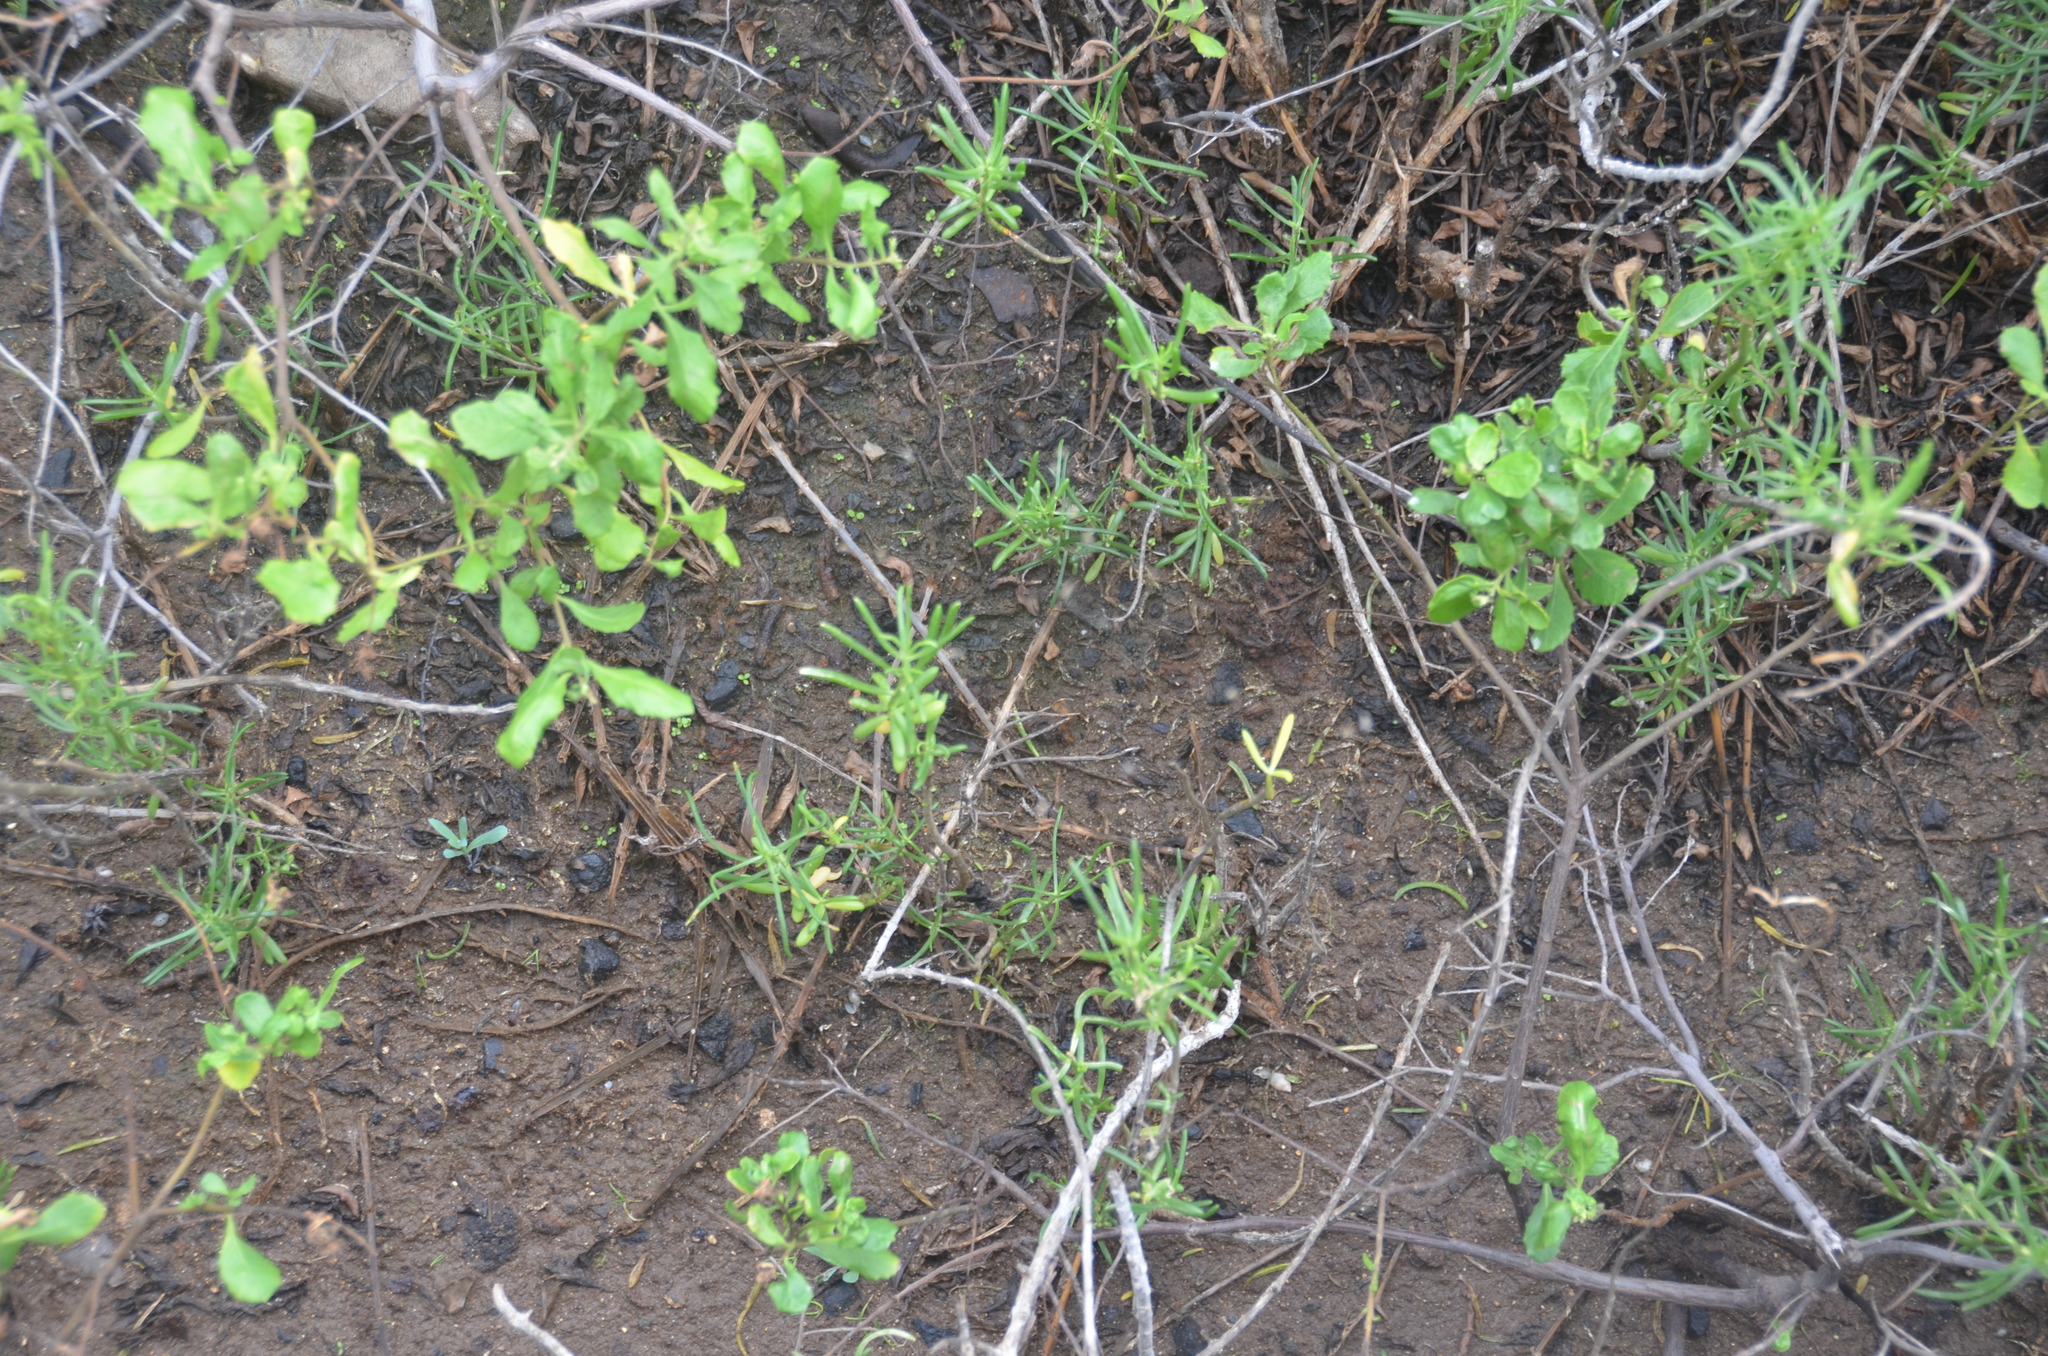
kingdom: Plantae
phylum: Tracheophyta
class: Magnoliopsida
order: Brassicales
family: Bataceae
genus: Batis
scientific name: Batis maritima
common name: Turtleweed
